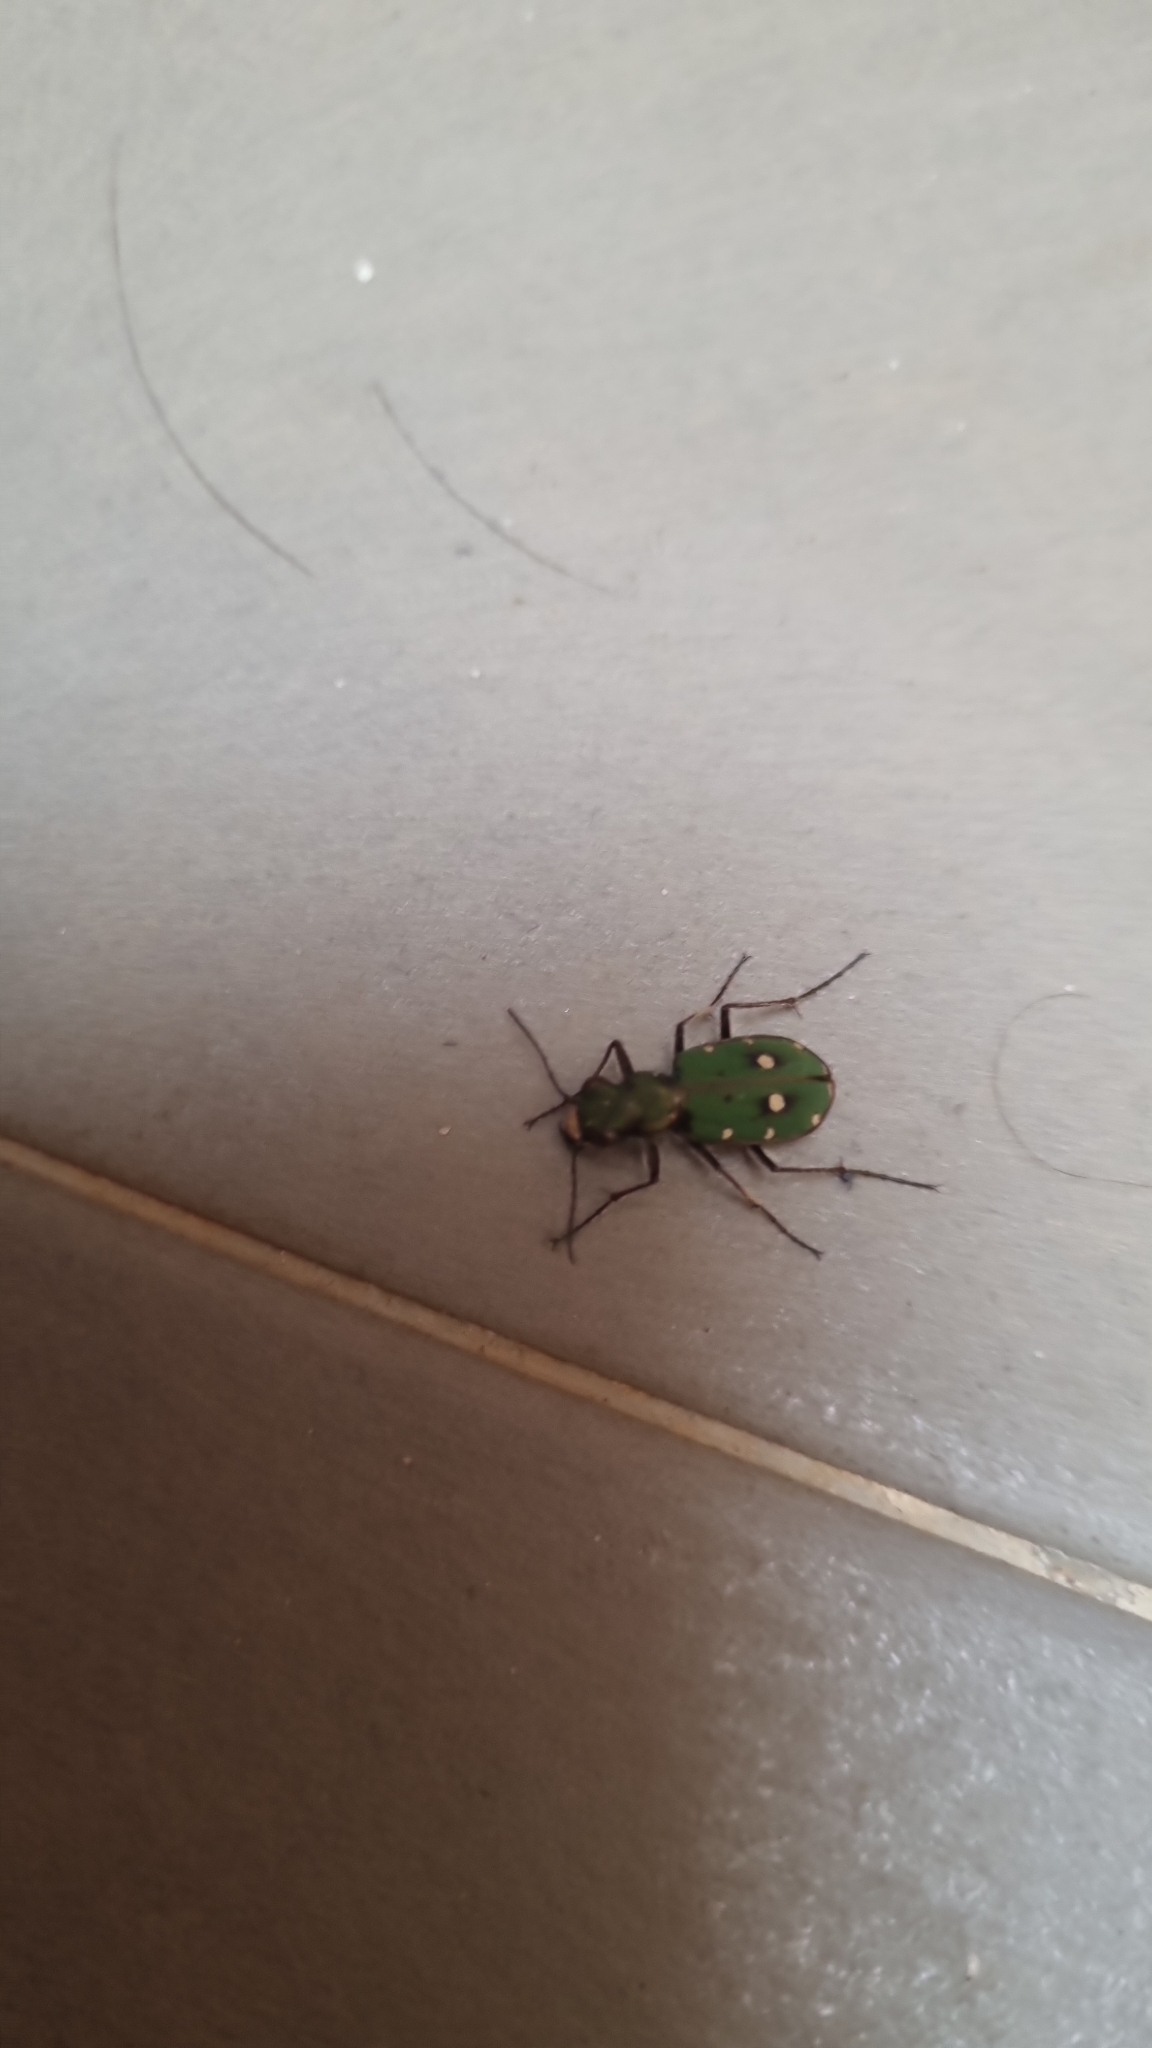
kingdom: Animalia
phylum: Arthropoda
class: Insecta
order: Coleoptera
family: Carabidae
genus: Cicindela
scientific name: Cicindela campestris
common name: Common tiger beetle
